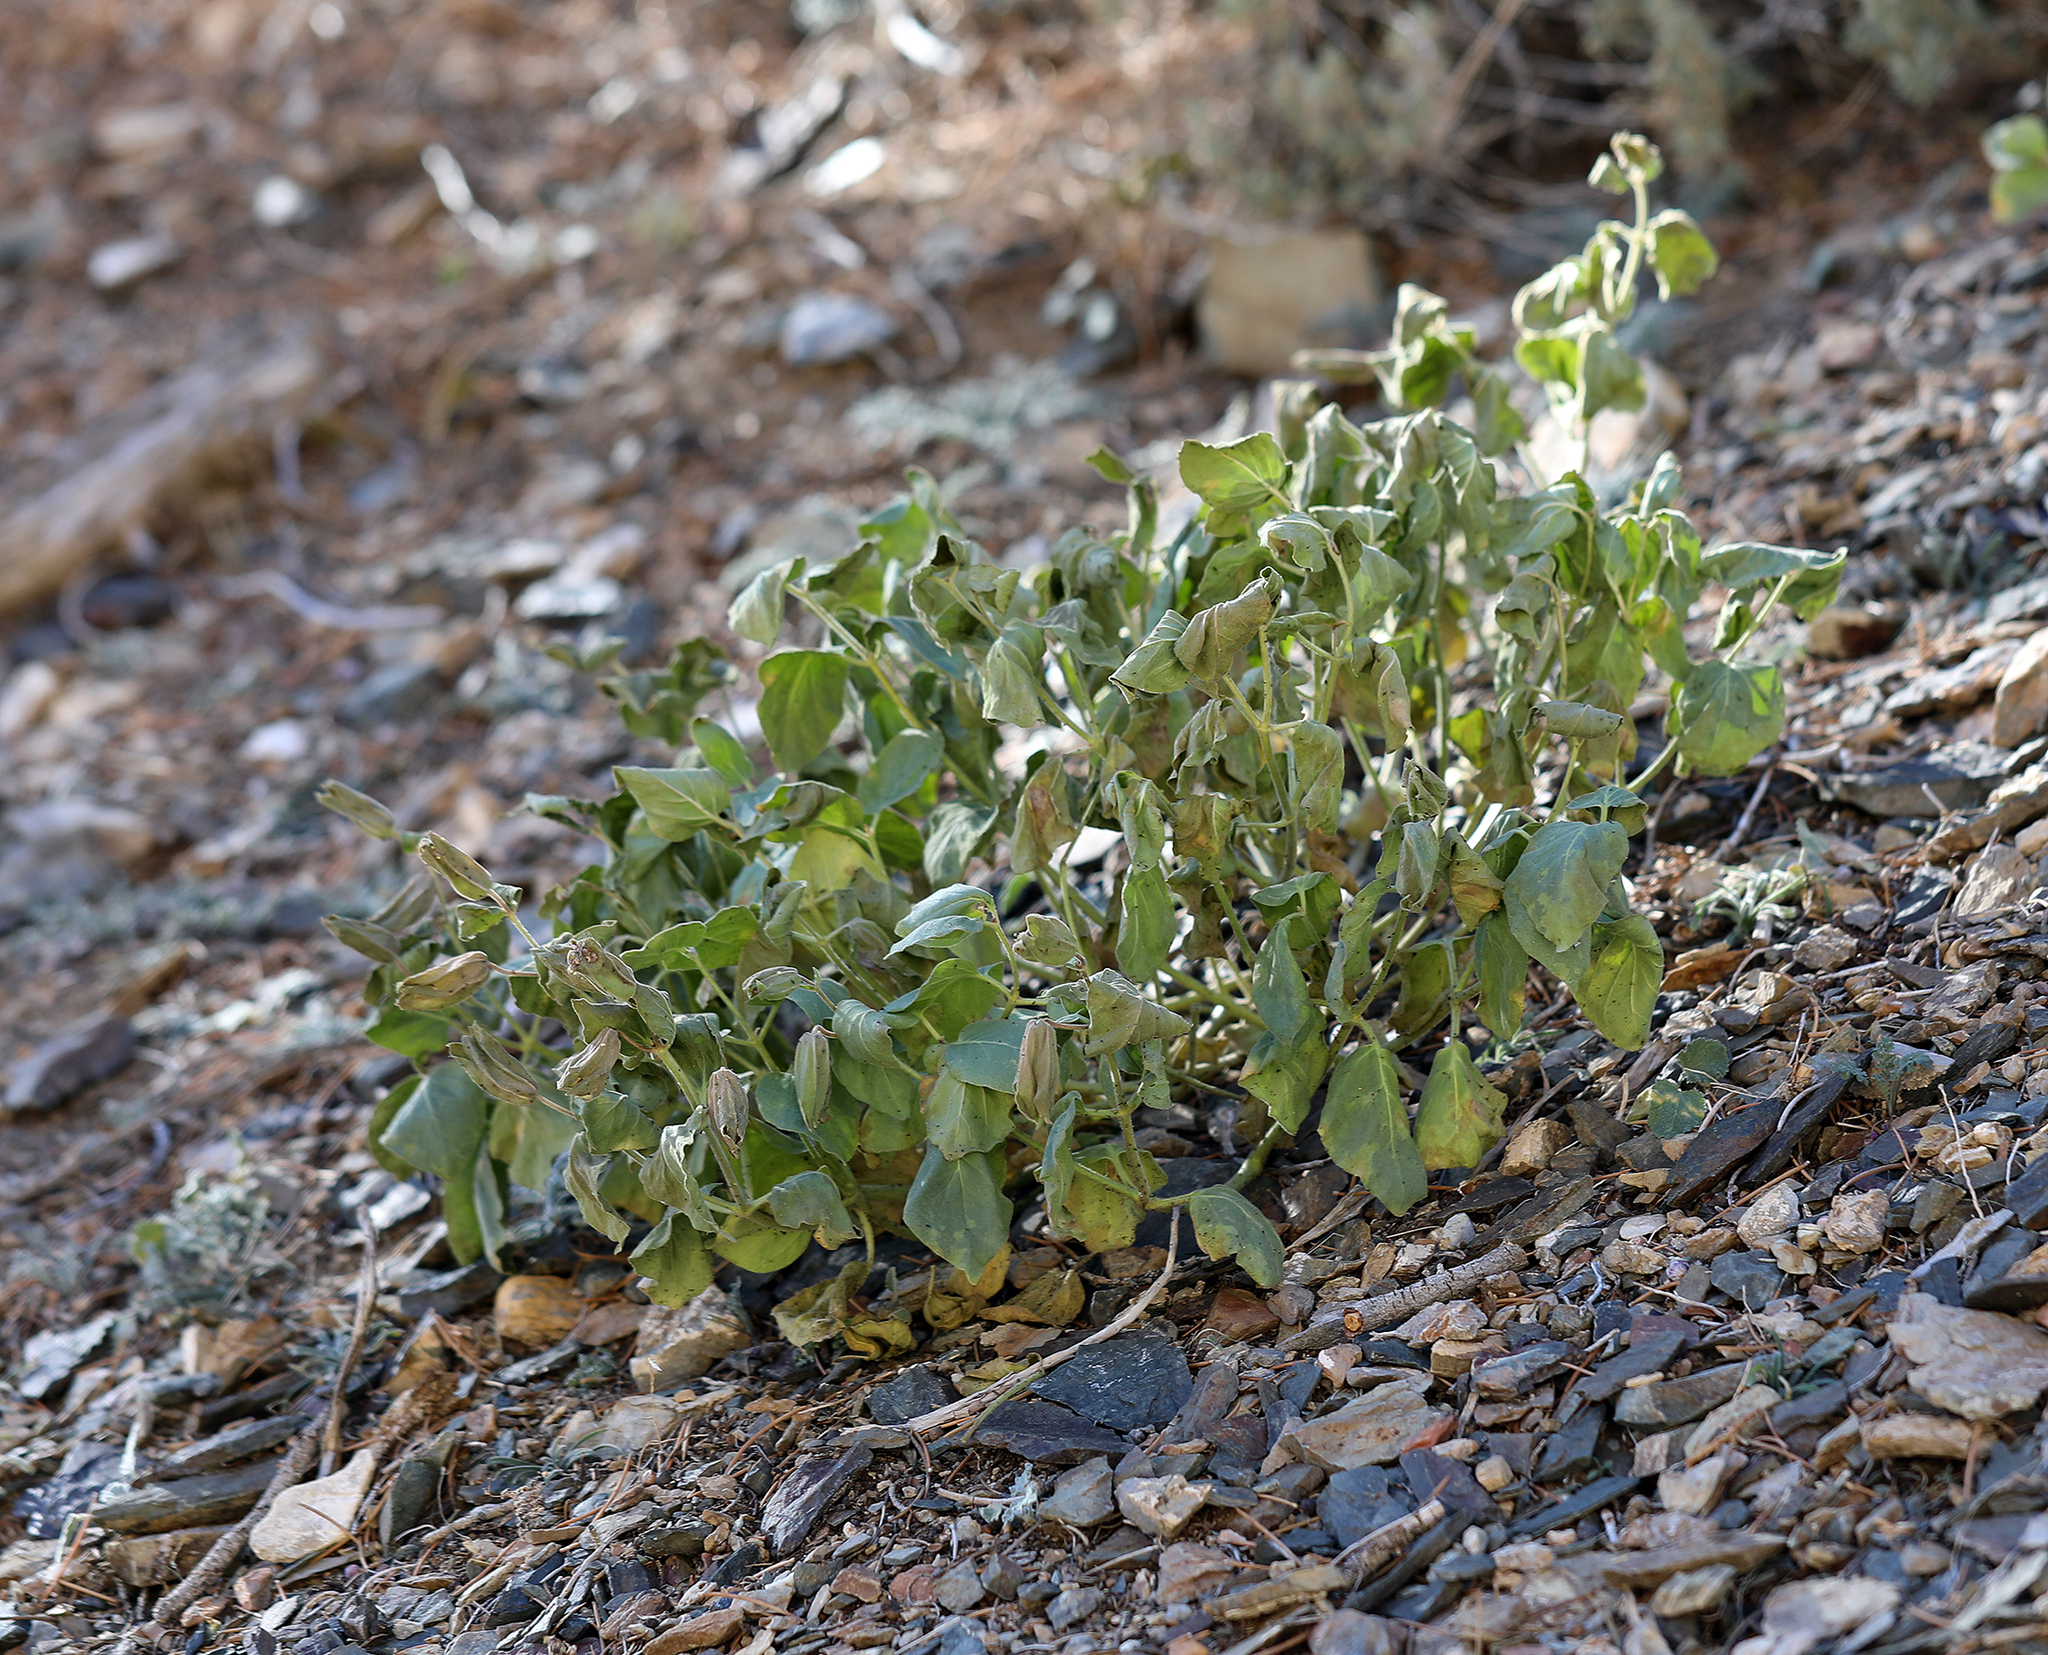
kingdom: Plantae
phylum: Tracheophyta
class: Magnoliopsida
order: Caryophyllales
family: Nyctaginaceae
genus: Mirabilis
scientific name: Mirabilis multiflora
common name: Froebel's four-o'clock
